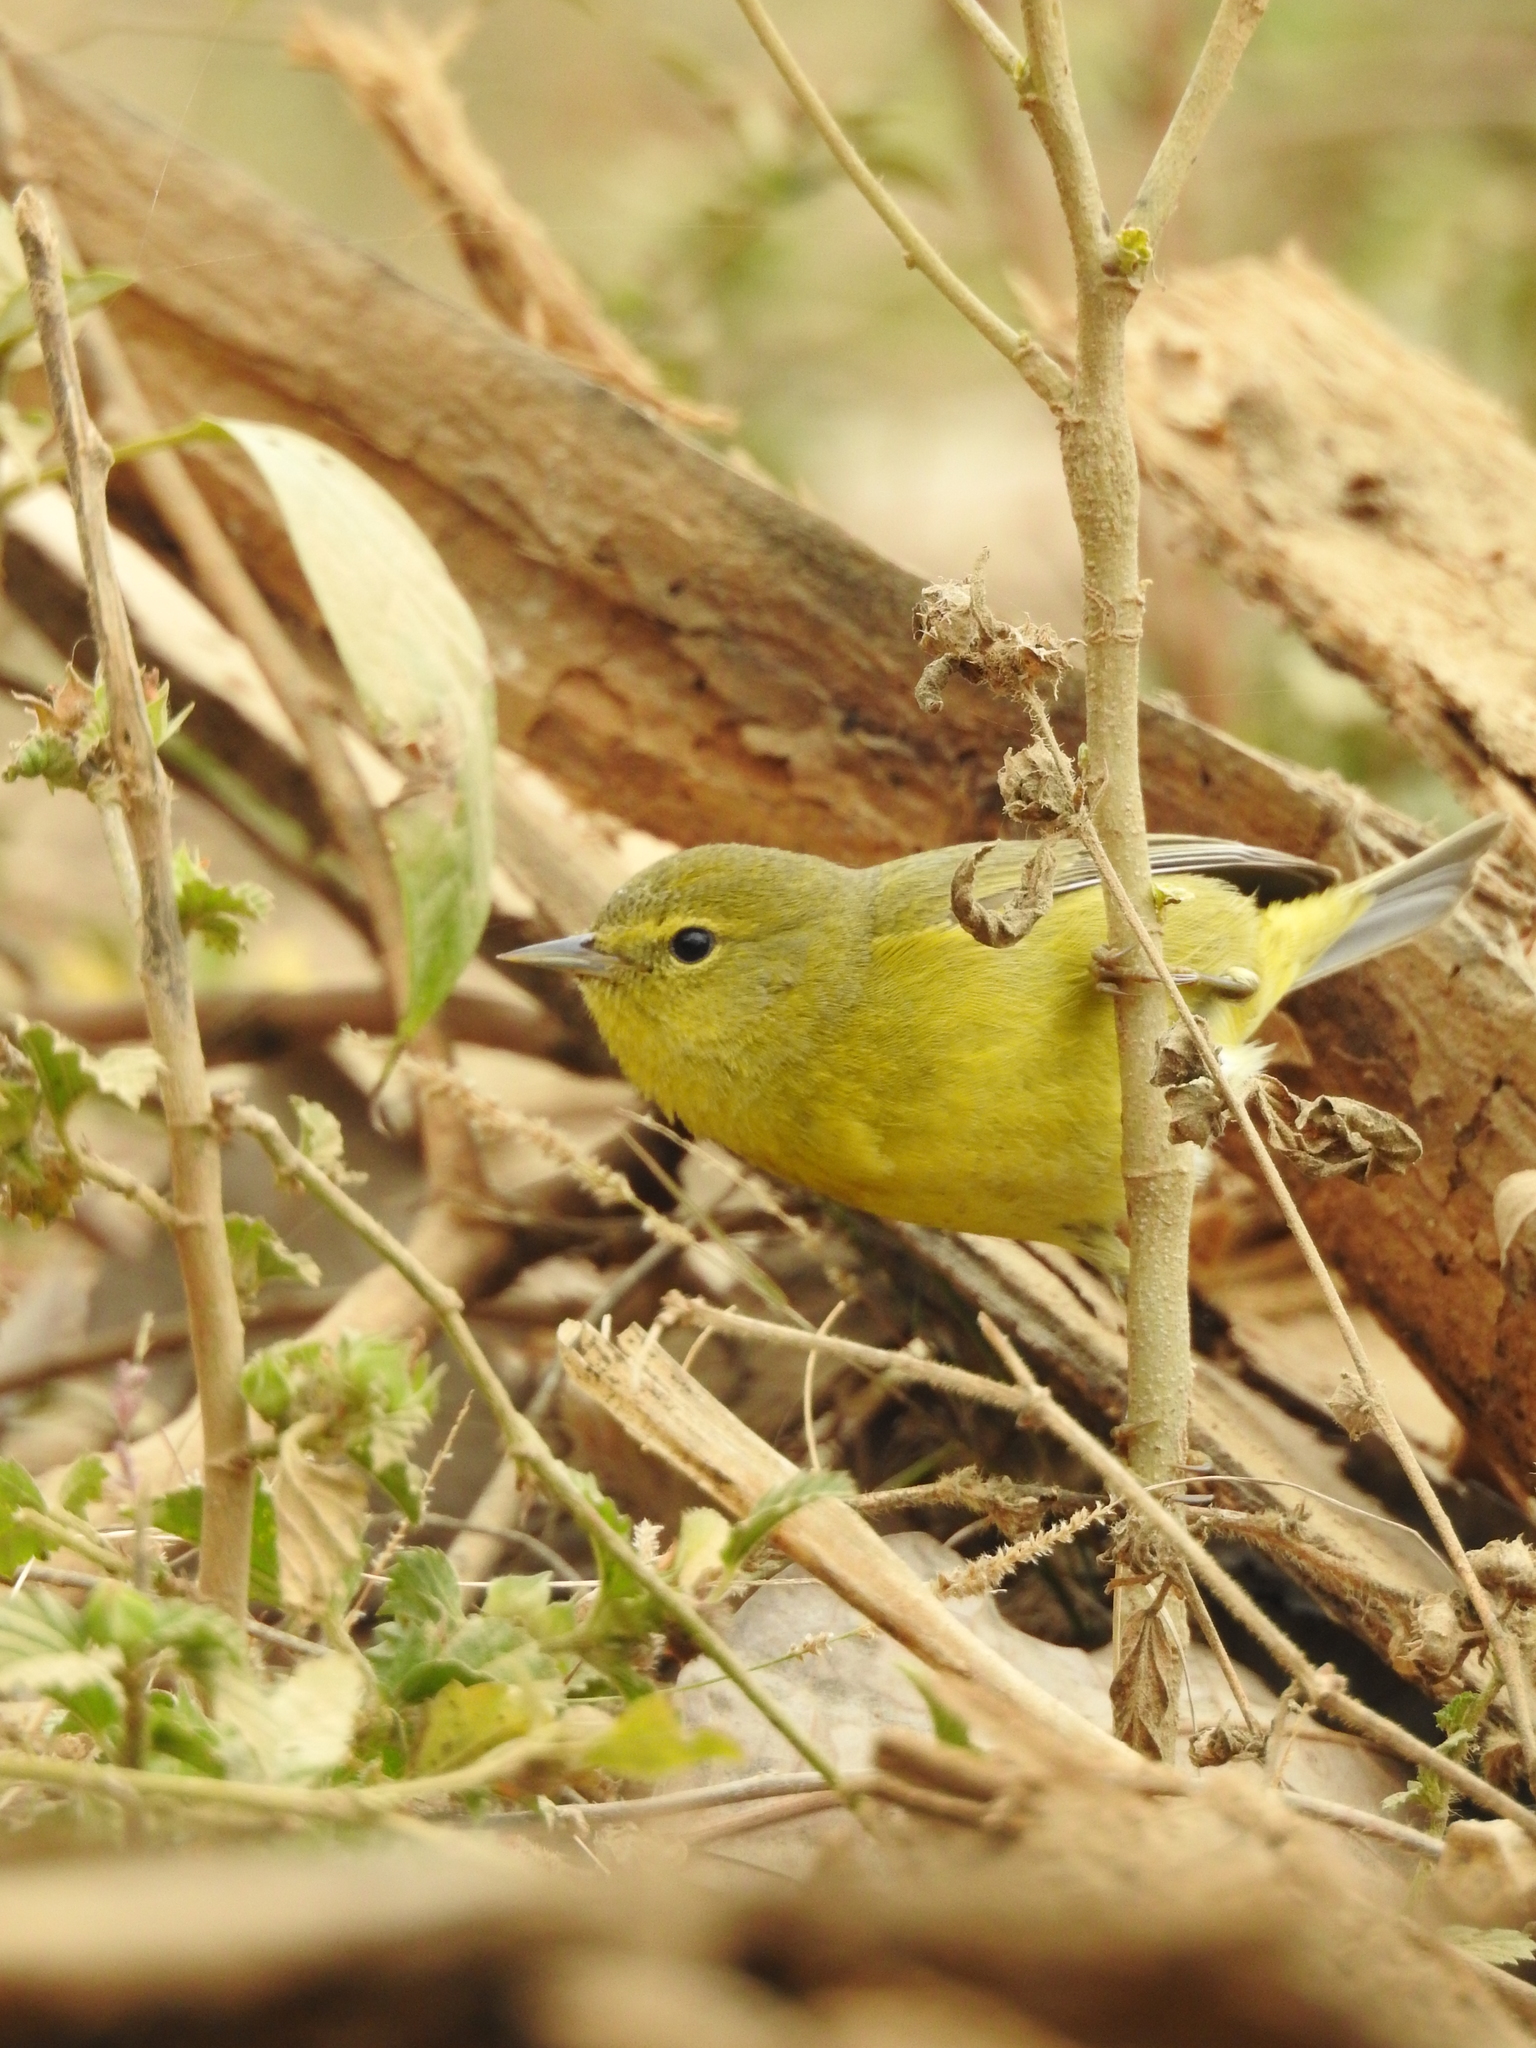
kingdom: Animalia
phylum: Chordata
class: Aves
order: Passeriformes
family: Parulidae
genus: Leiothlypis
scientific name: Leiothlypis celata
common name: Orange-crowned warbler
